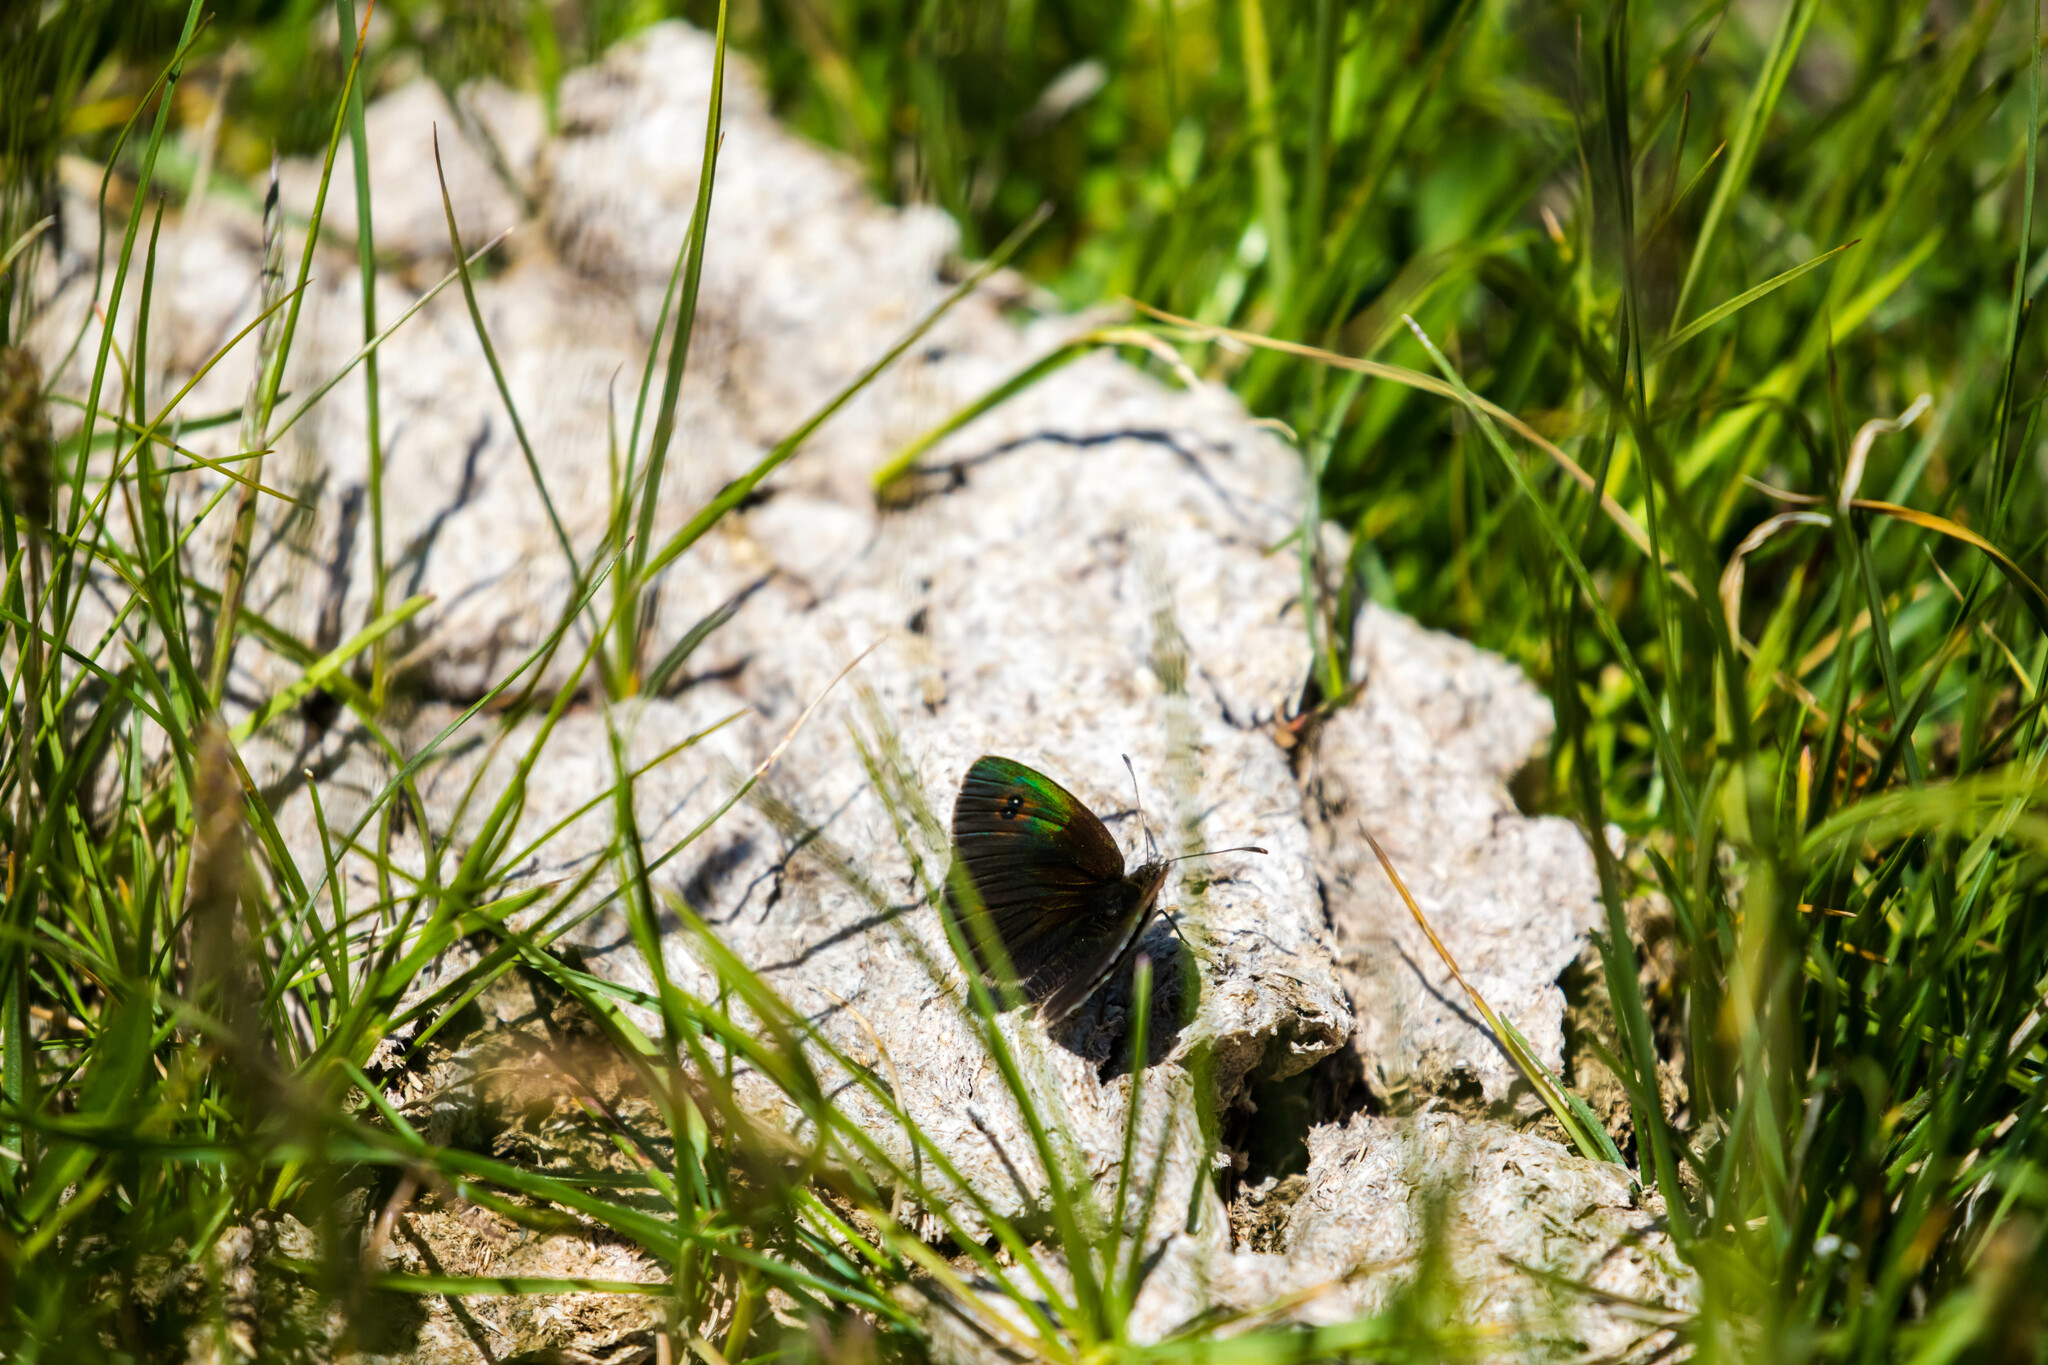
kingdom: Animalia
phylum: Arthropoda
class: Insecta
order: Lepidoptera
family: Nymphalidae
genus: Erebia
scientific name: Erebia cassioides
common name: Common brassy ringlet
